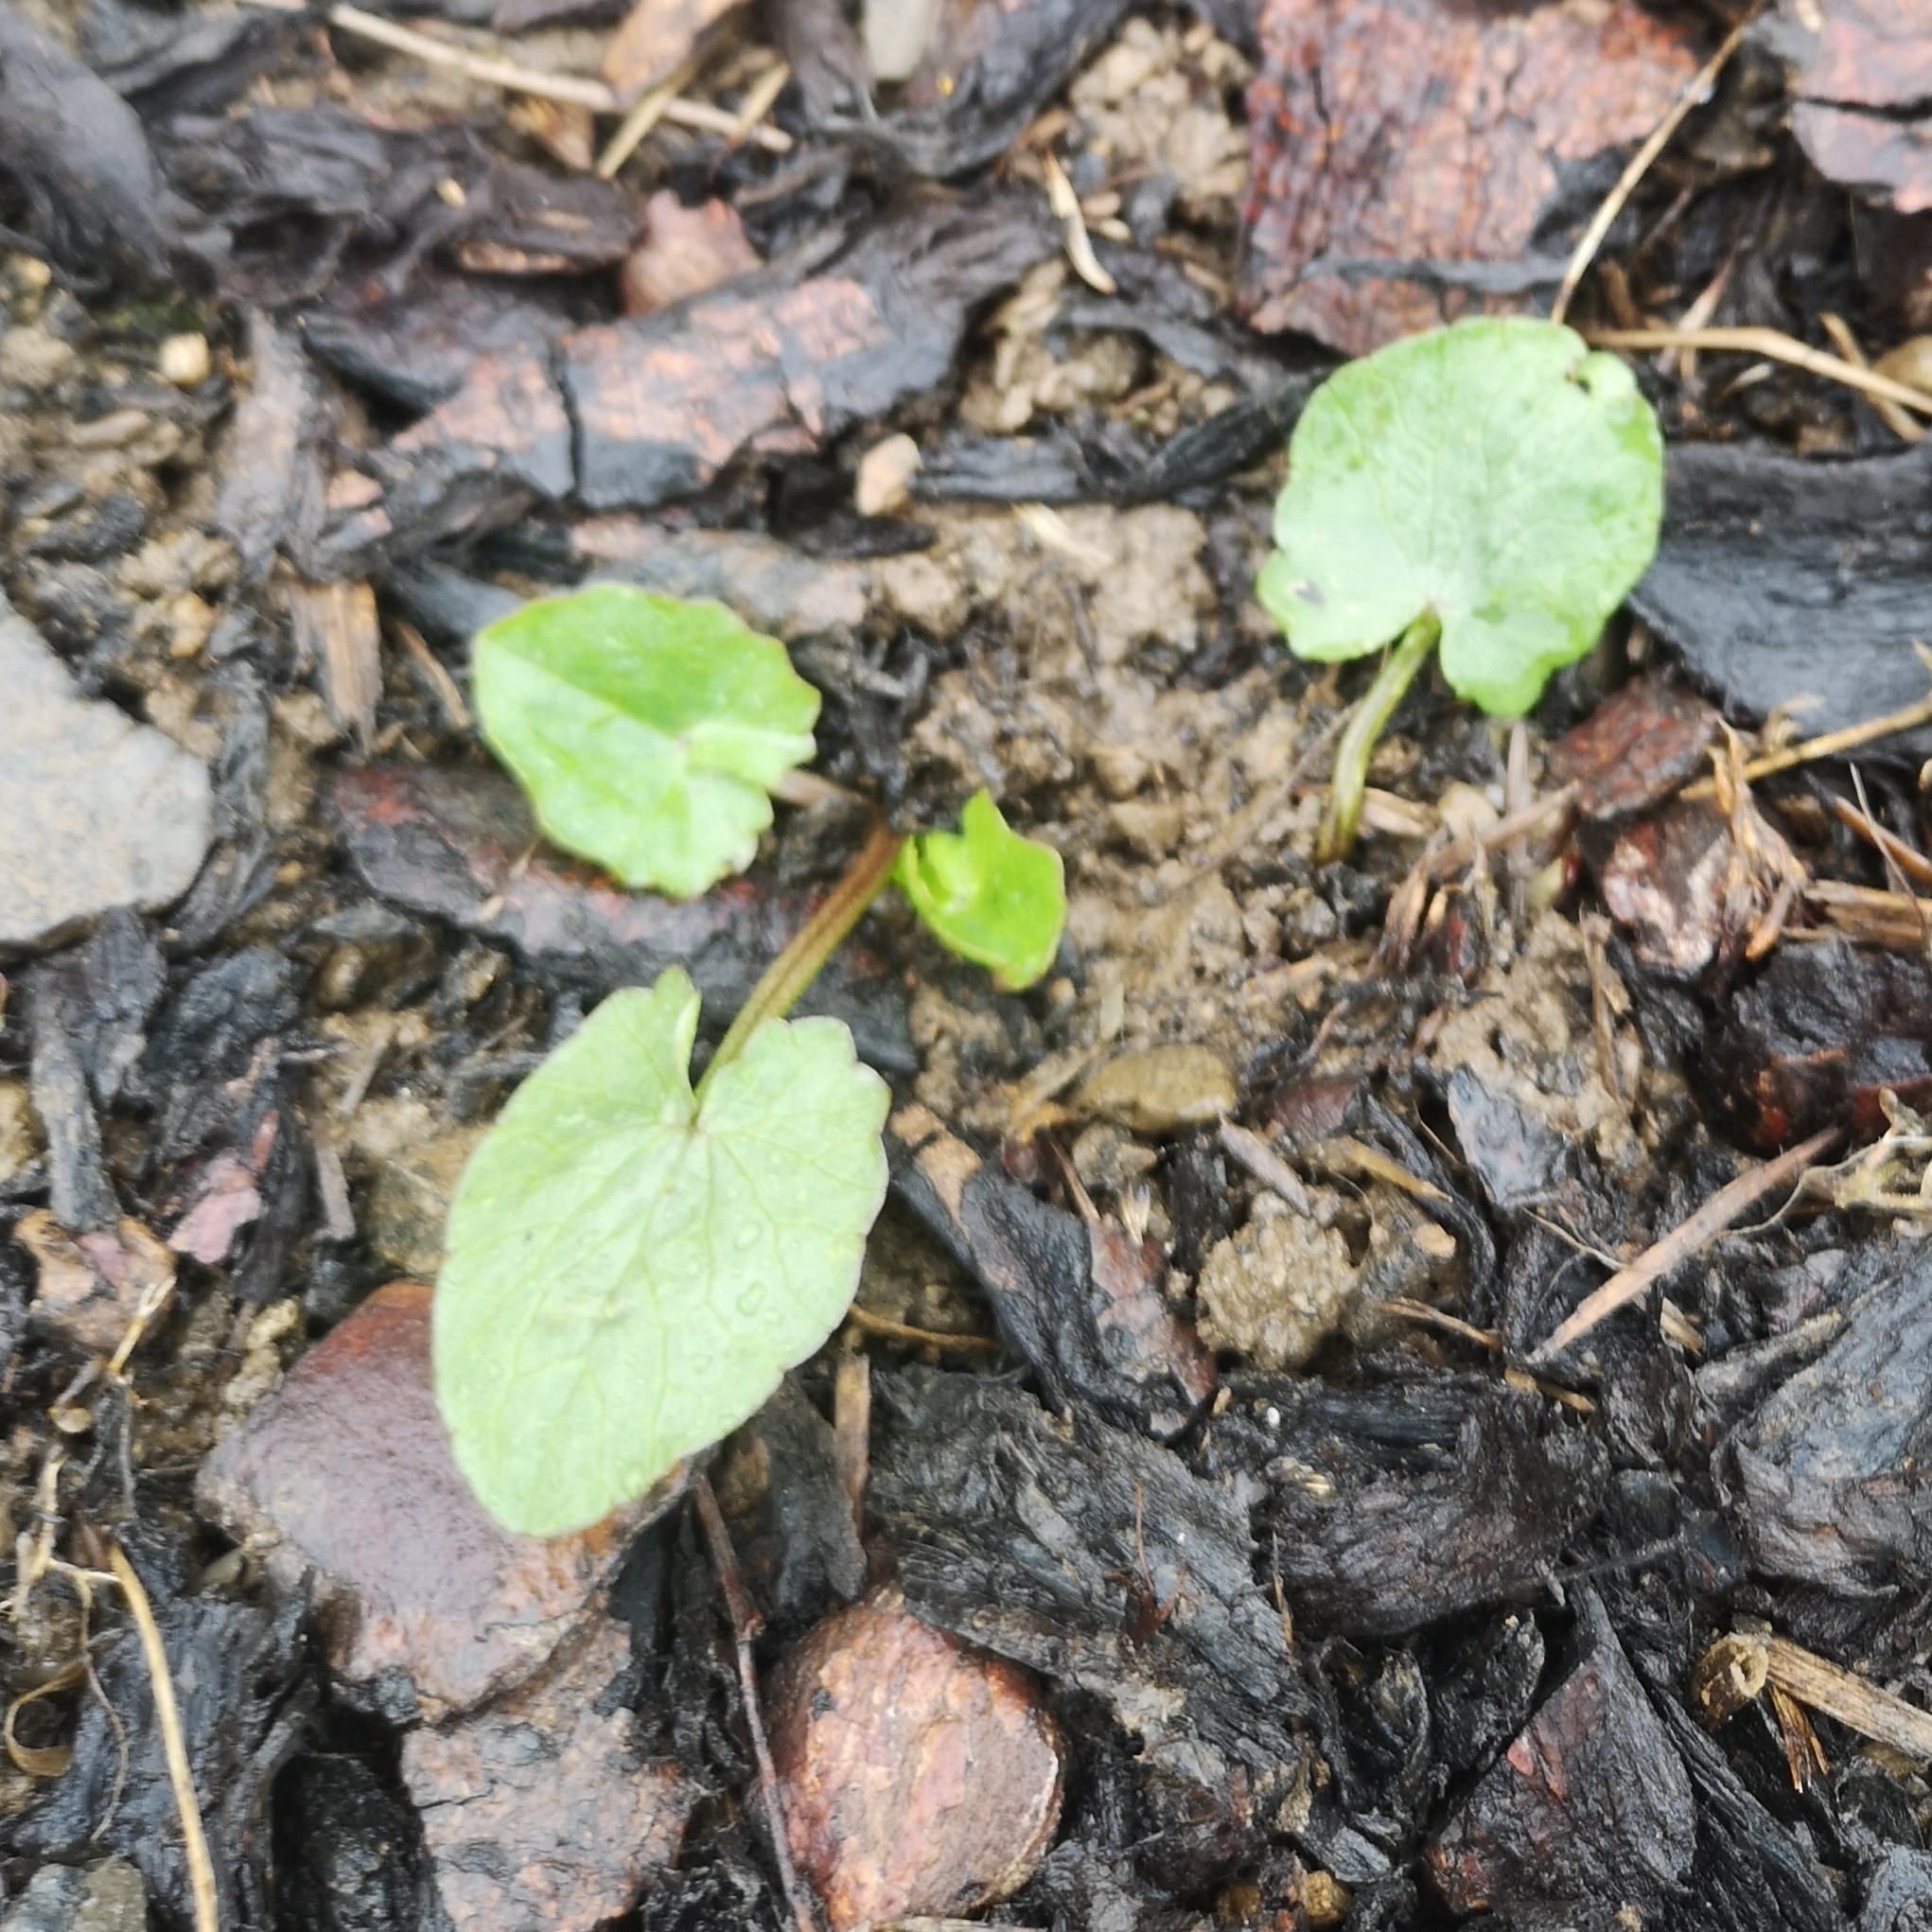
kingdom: Plantae
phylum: Tracheophyta
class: Magnoliopsida
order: Ranunculales
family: Ranunculaceae
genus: Ficaria
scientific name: Ficaria verna
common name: Lesser celandine
